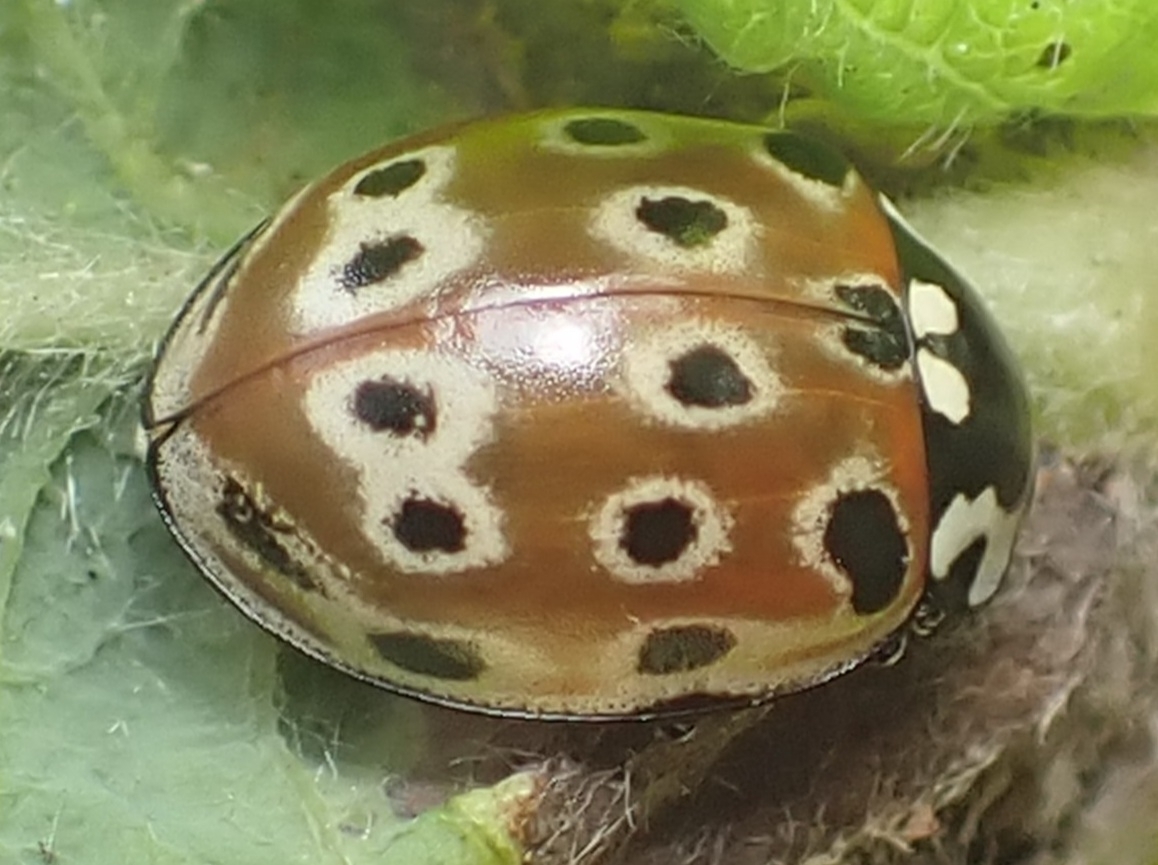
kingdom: Animalia
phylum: Arthropoda
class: Insecta
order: Coleoptera
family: Coccinellidae
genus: Anatis
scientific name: Anatis ocellata
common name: Eyed ladybird
